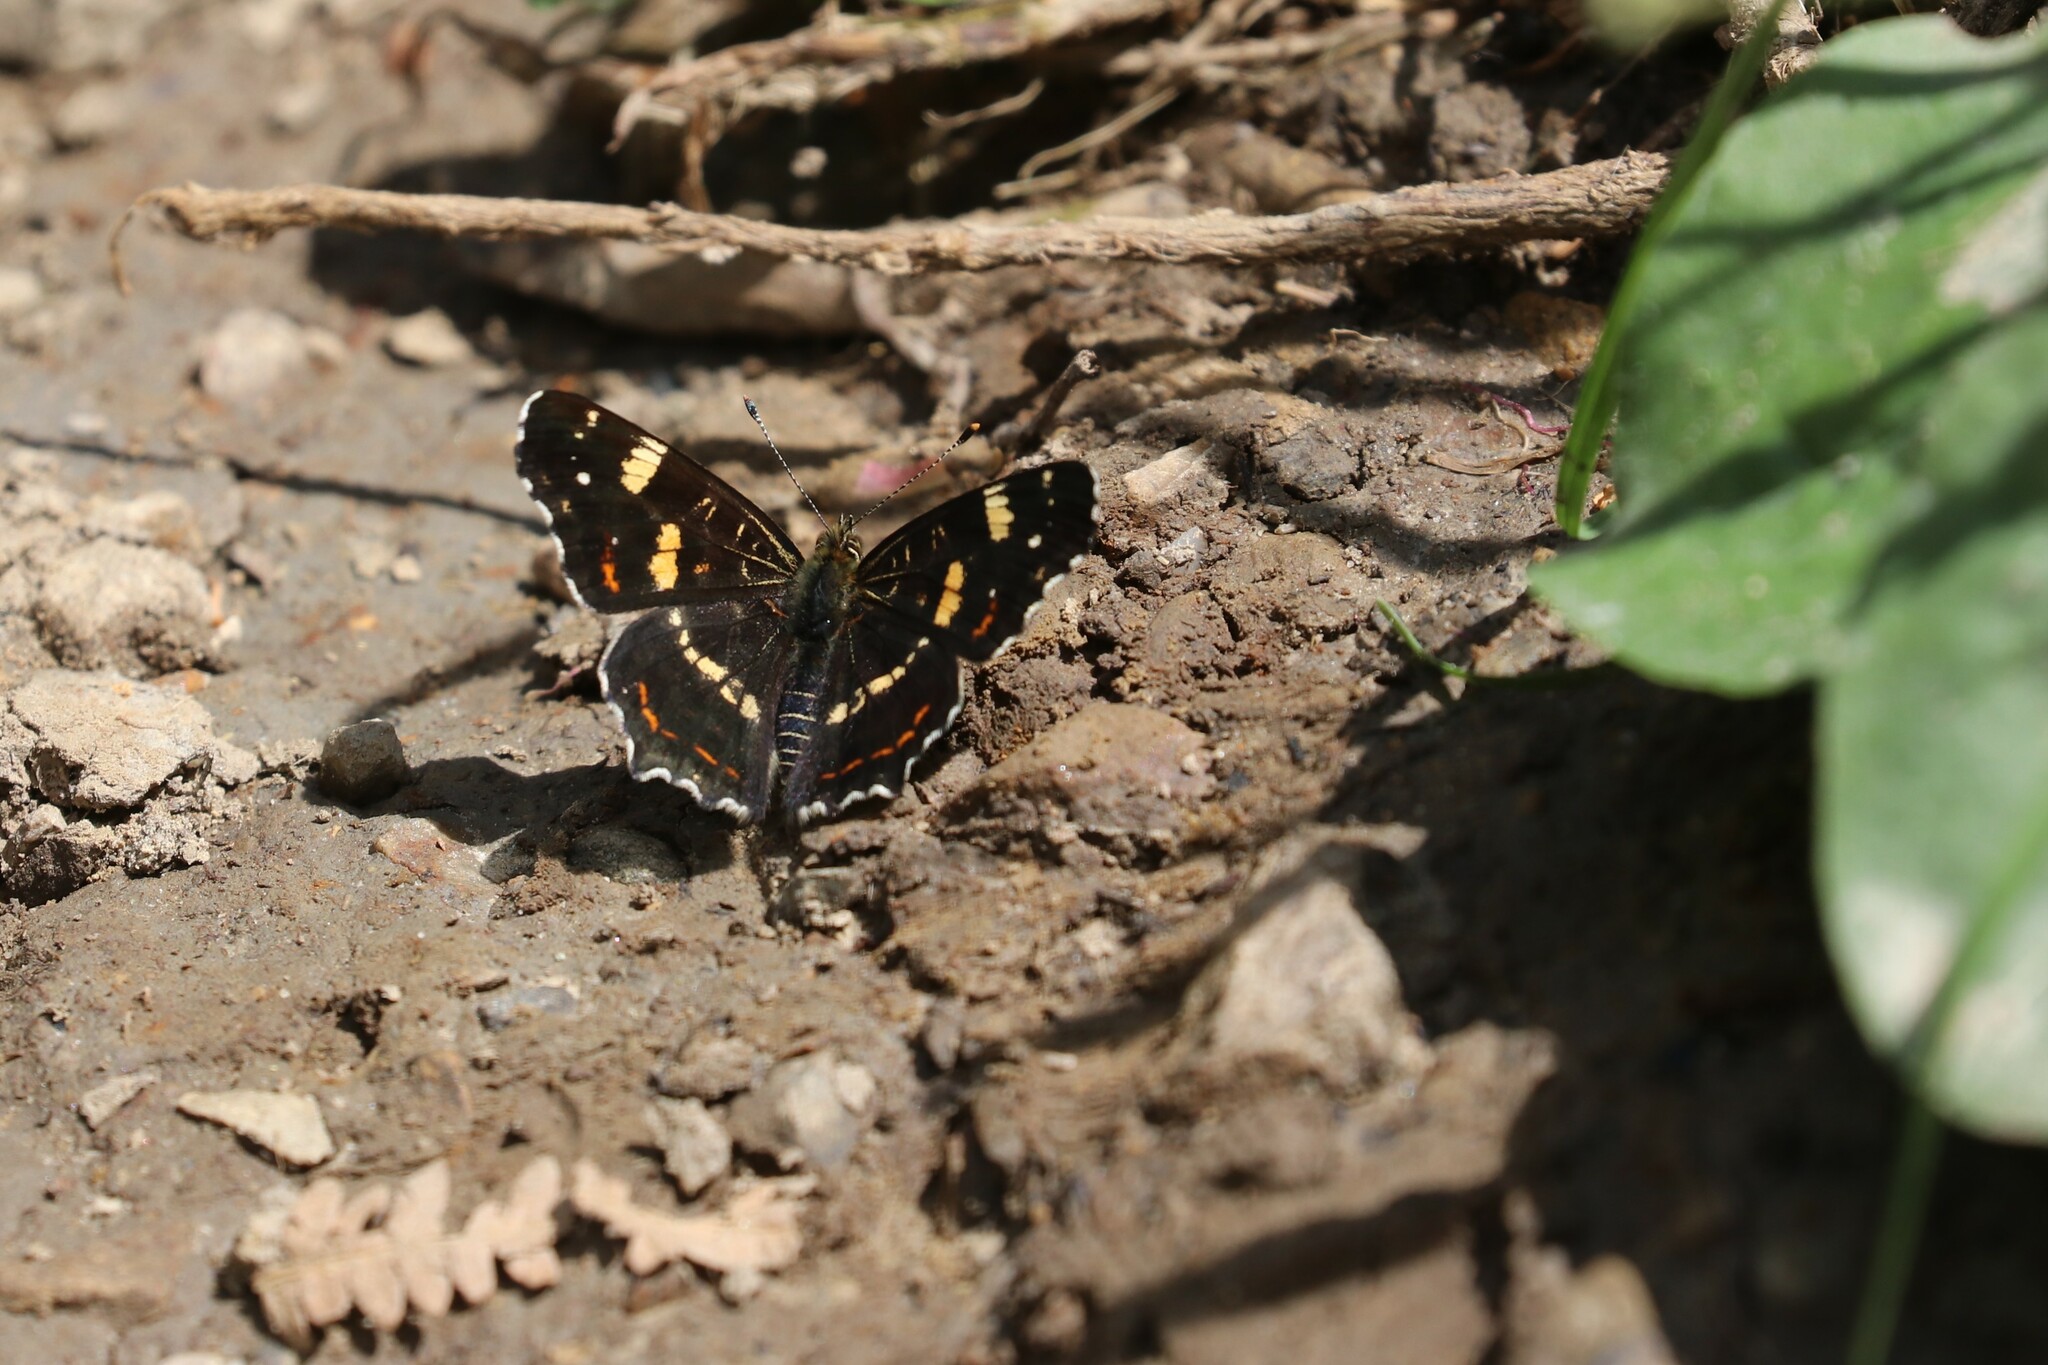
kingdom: Animalia
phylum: Arthropoda
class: Insecta
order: Lepidoptera
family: Nymphalidae
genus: Araschnia
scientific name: Araschnia levana
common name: Map butterfly
